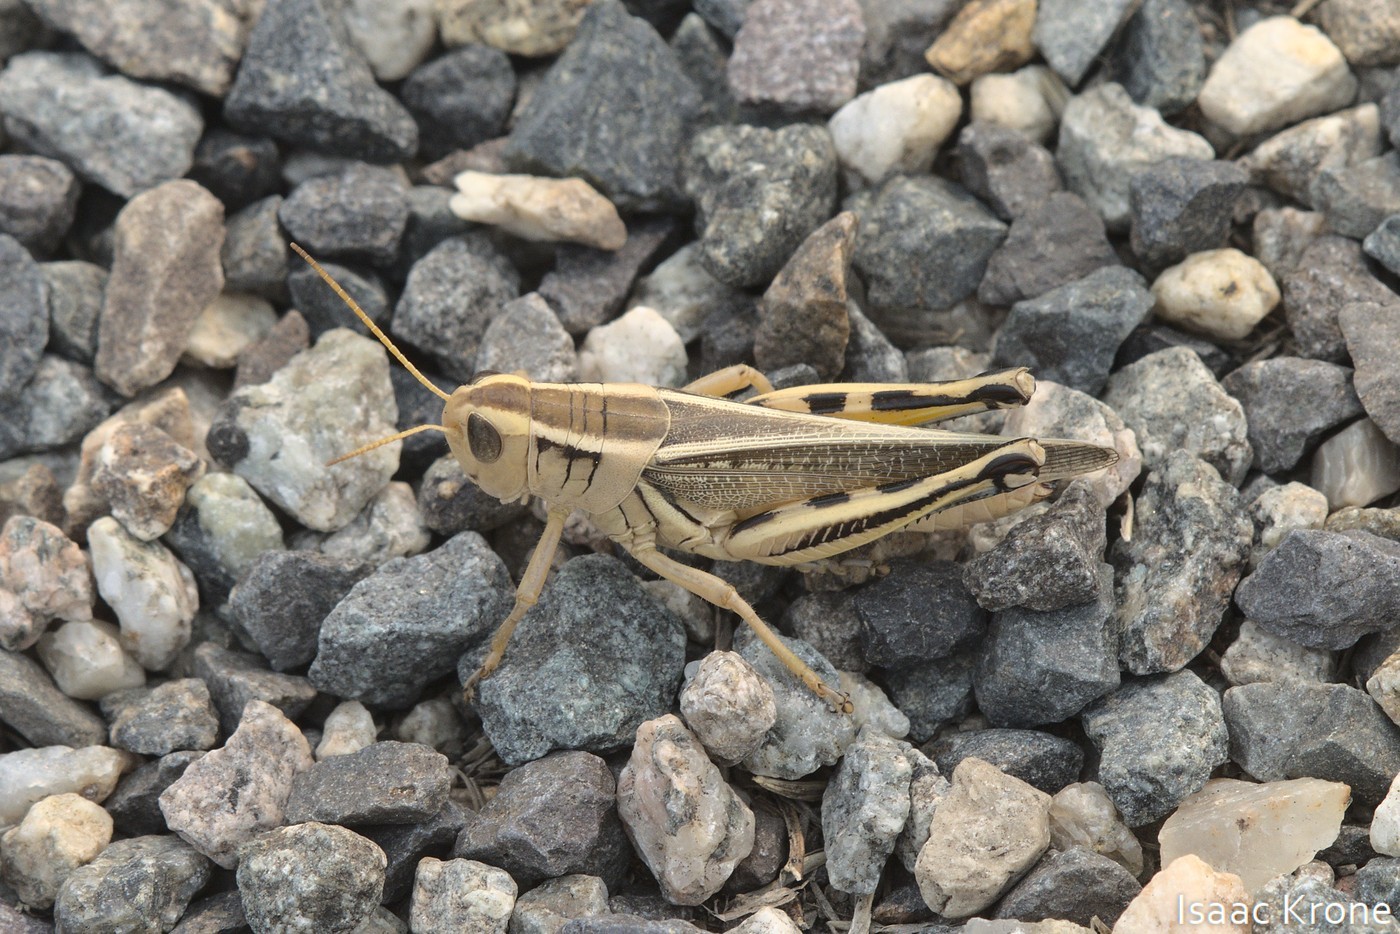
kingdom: Animalia
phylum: Arthropoda
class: Insecta
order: Orthoptera
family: Acrididae
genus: Melanoplus
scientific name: Melanoplus bivittatus
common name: Two-striped grasshopper
